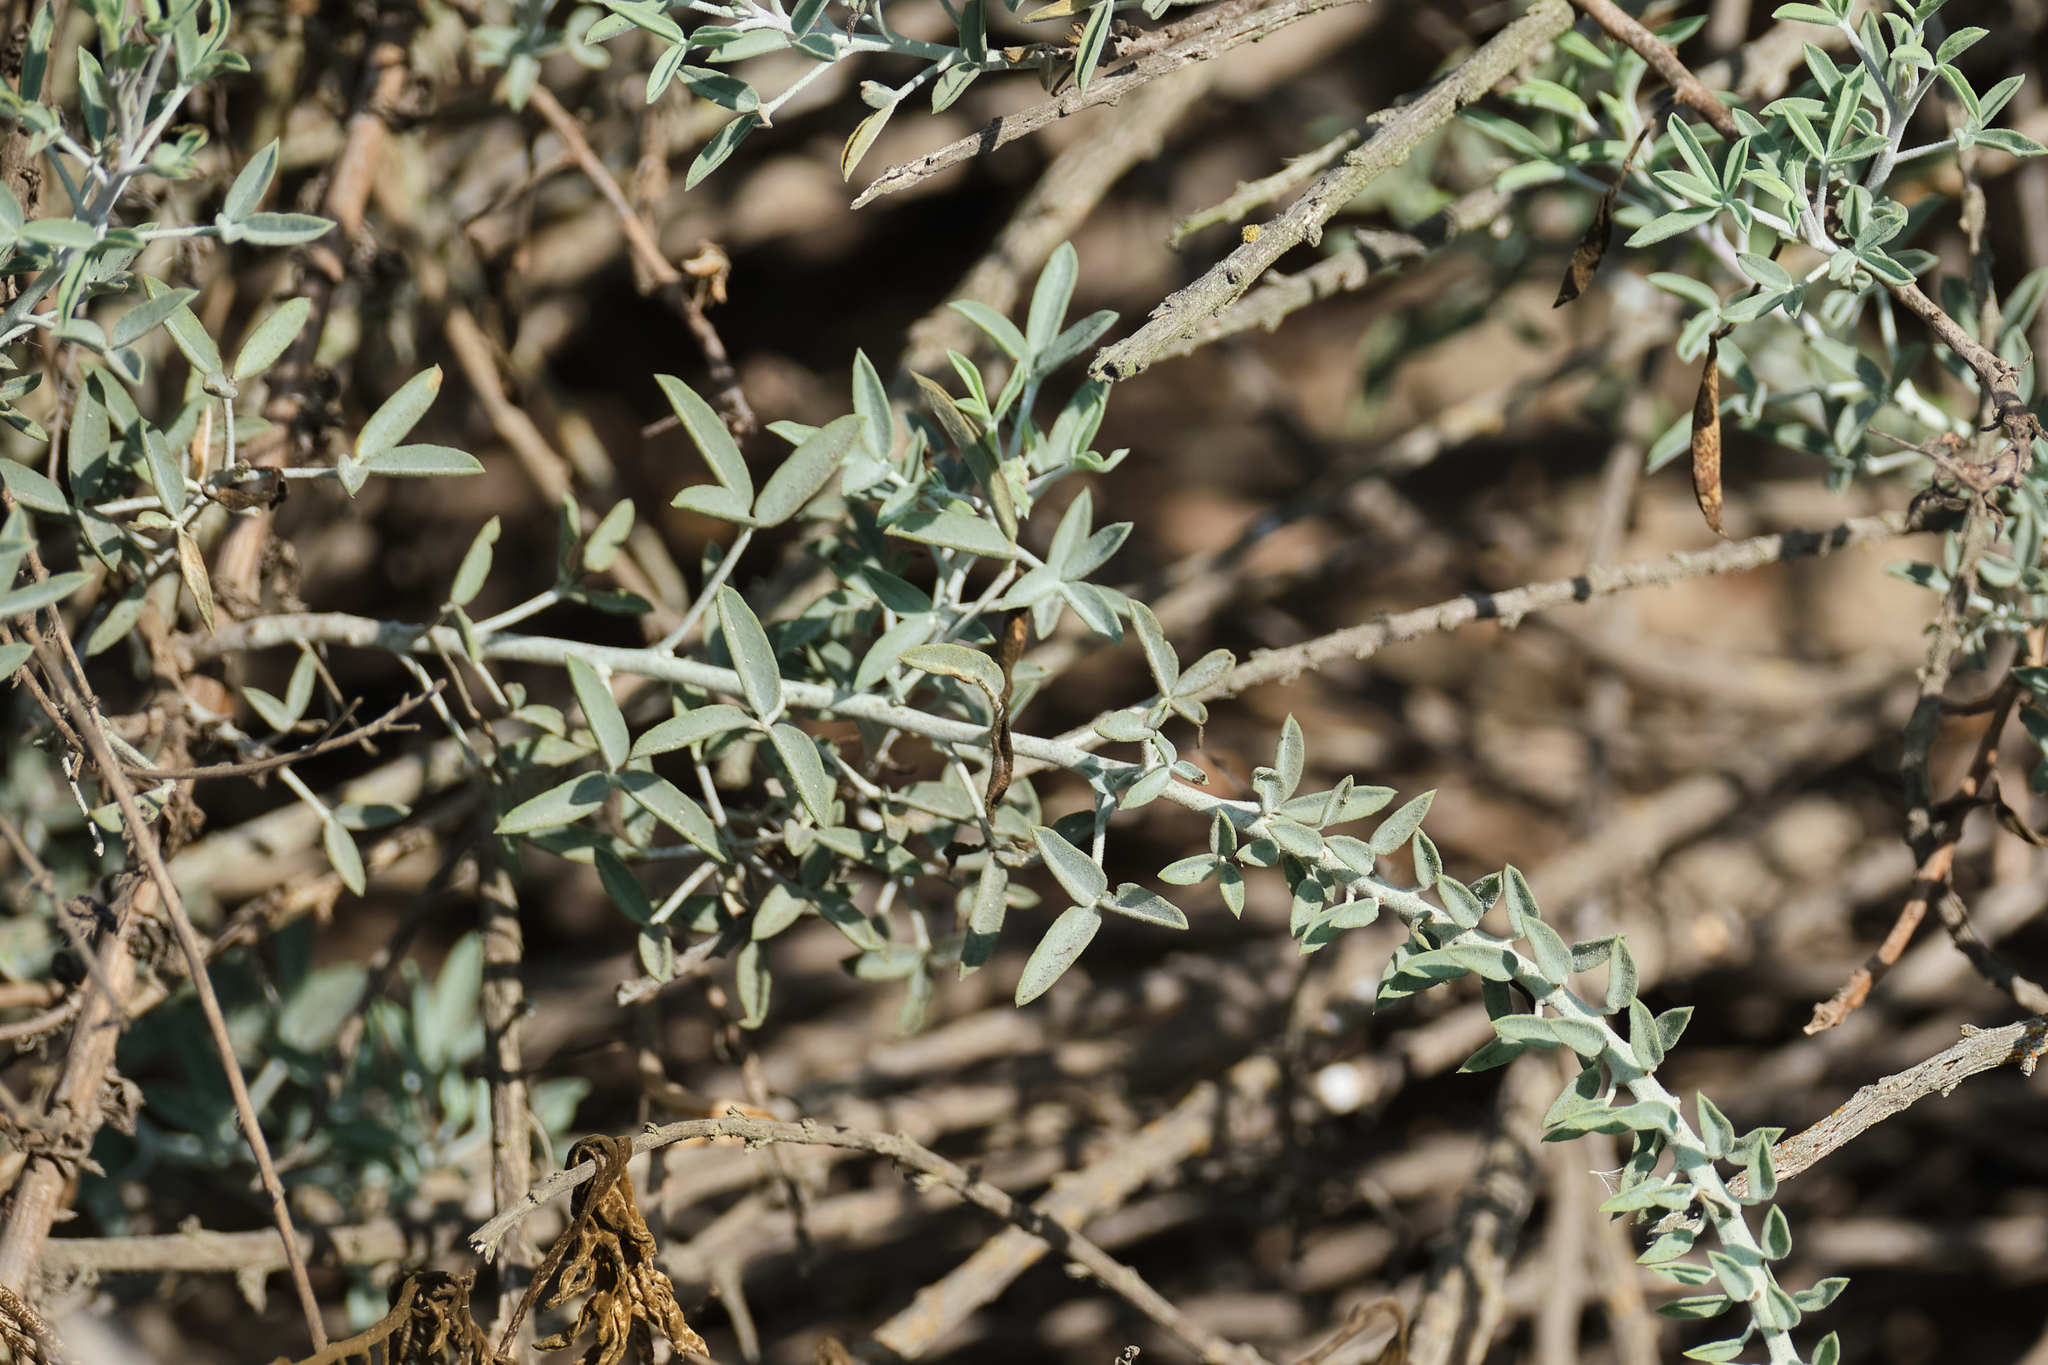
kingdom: Plantae
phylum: Tracheophyta
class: Magnoliopsida
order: Brassicales
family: Cleomaceae
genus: Cleomella
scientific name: Cleomella arborea
